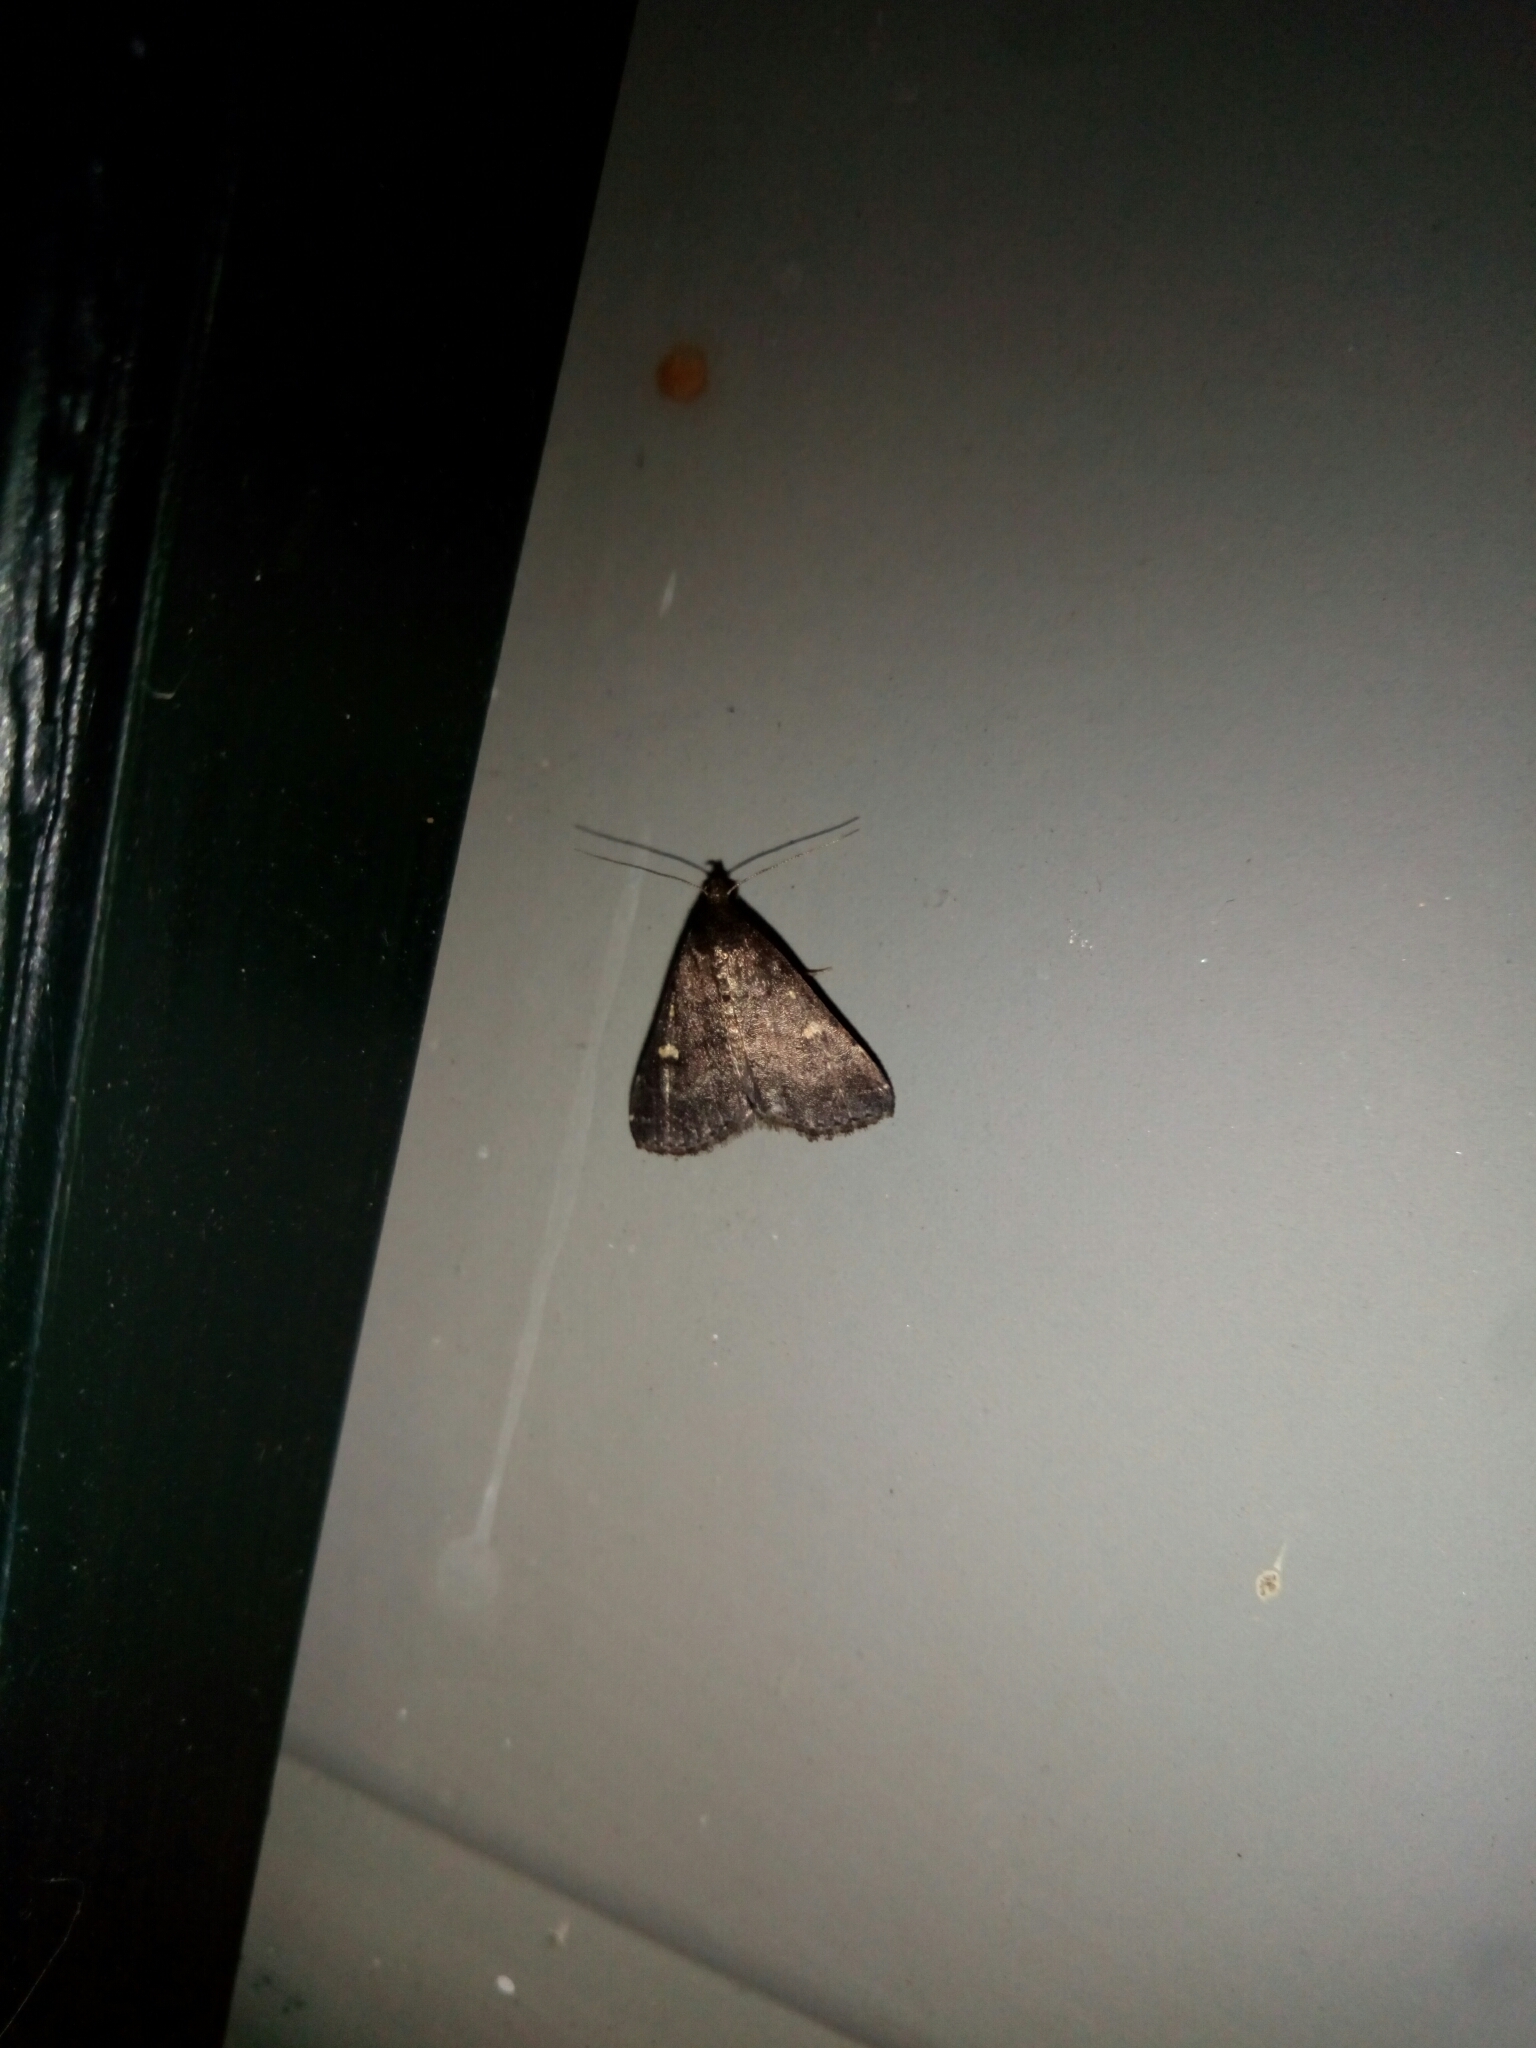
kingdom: Animalia
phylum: Arthropoda
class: Insecta
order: Lepidoptera
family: Erebidae
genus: Tetanolita
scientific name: Tetanolita mynesalis
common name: Smoky tetanolita moth
